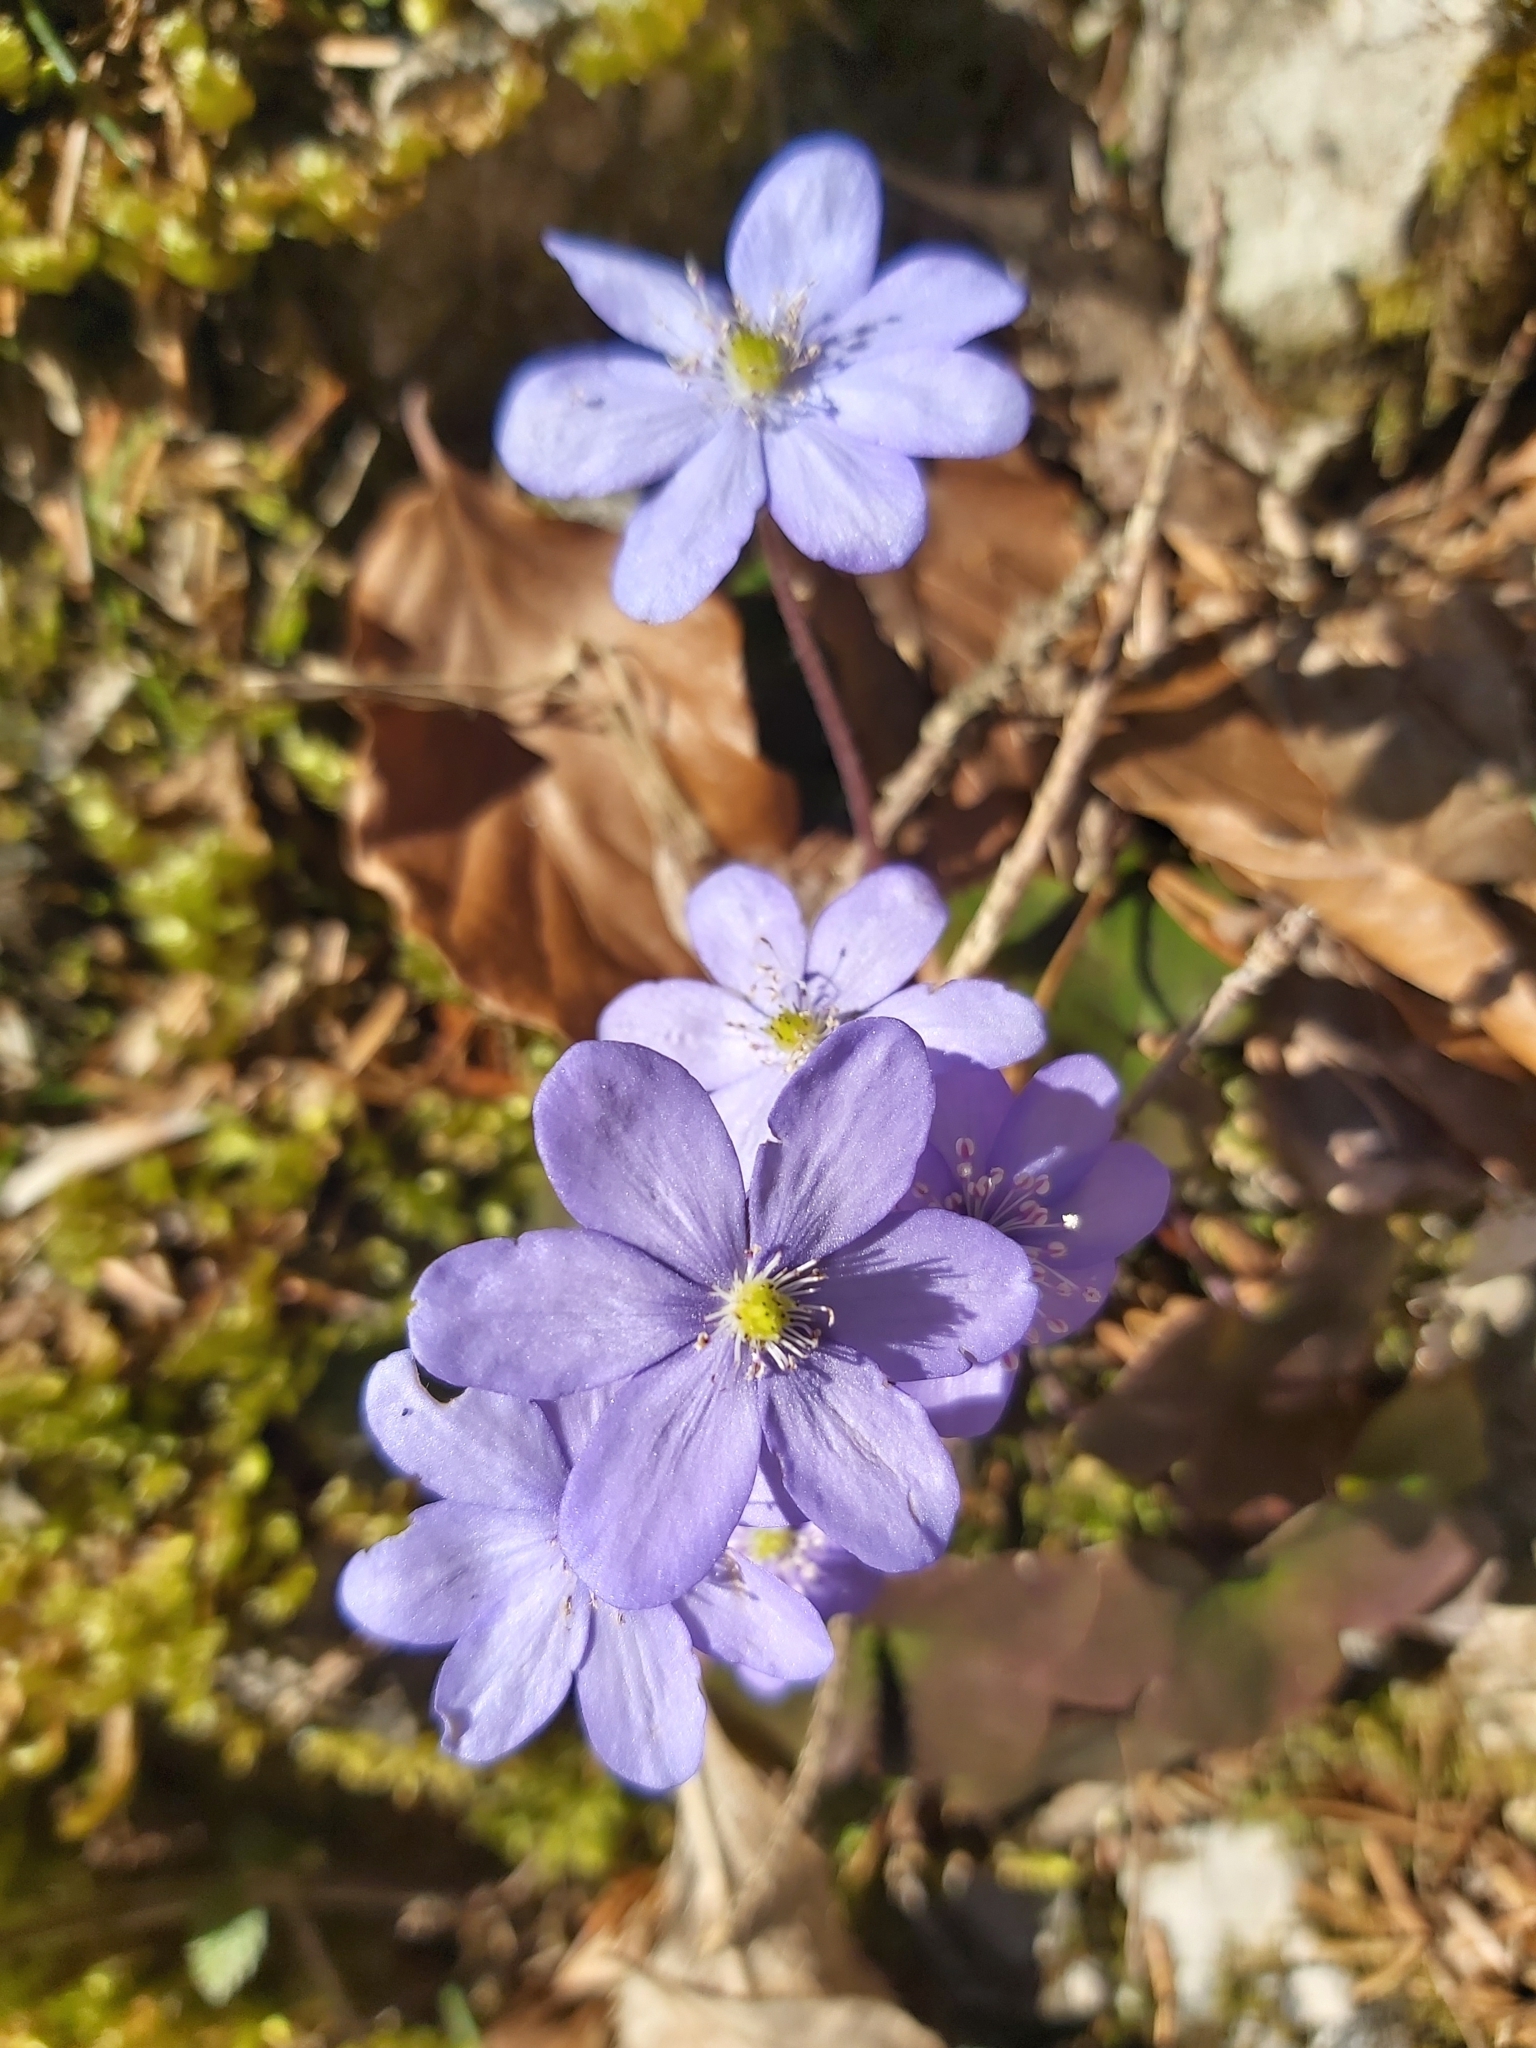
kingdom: Plantae
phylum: Tracheophyta
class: Magnoliopsida
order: Ranunculales
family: Ranunculaceae
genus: Hepatica
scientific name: Hepatica nobilis
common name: Liverleaf
